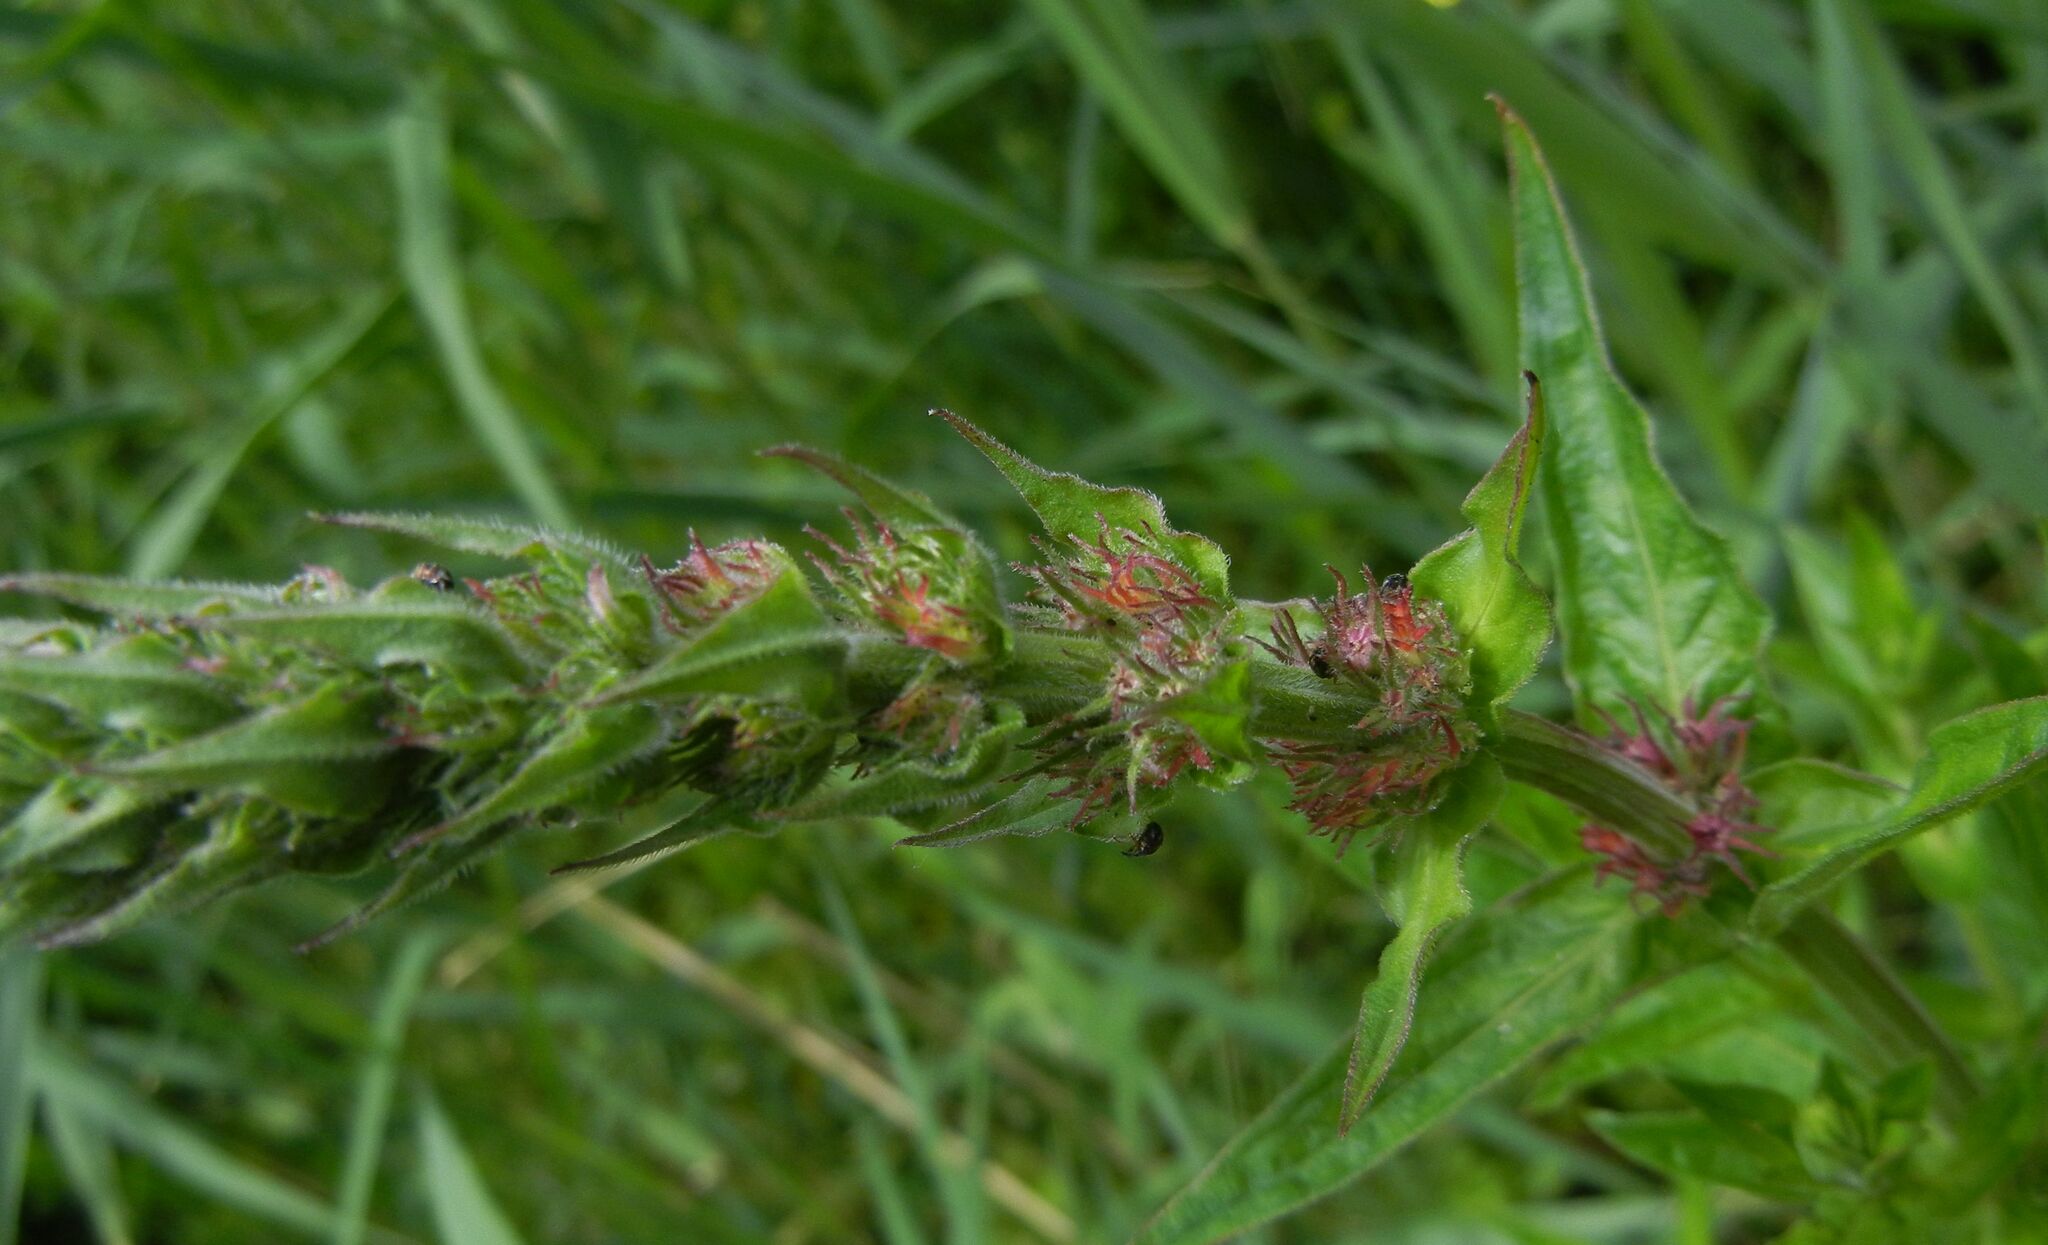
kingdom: Plantae
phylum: Tracheophyta
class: Magnoliopsida
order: Myrtales
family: Lythraceae
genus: Lythrum
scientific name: Lythrum salicaria
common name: Purple loosestrife
